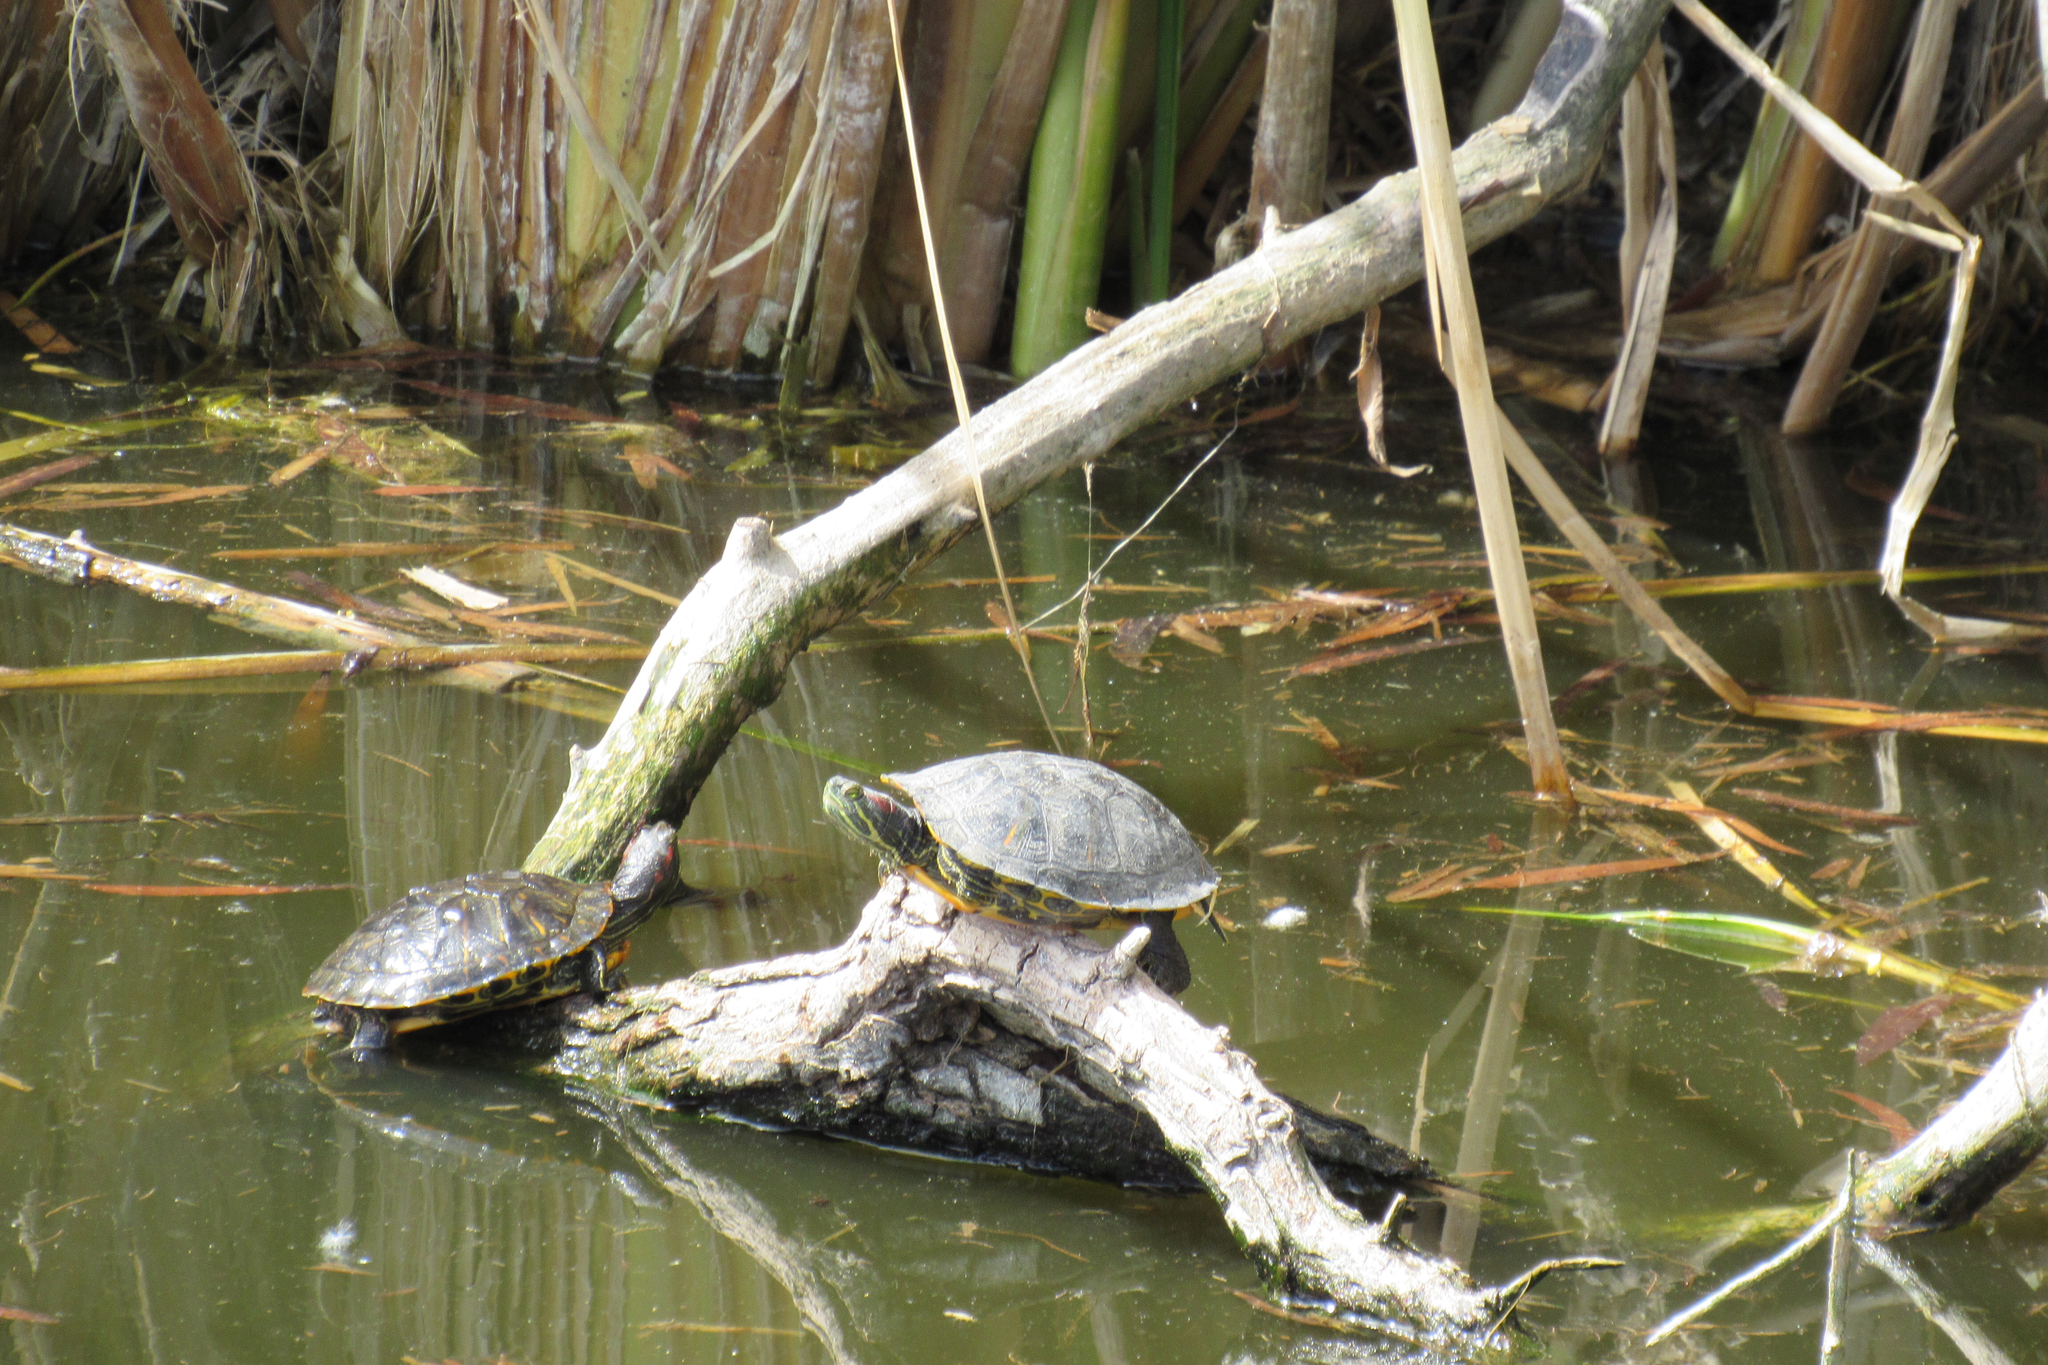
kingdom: Animalia
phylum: Chordata
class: Testudines
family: Emydidae
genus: Trachemys
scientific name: Trachemys scripta
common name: Slider
